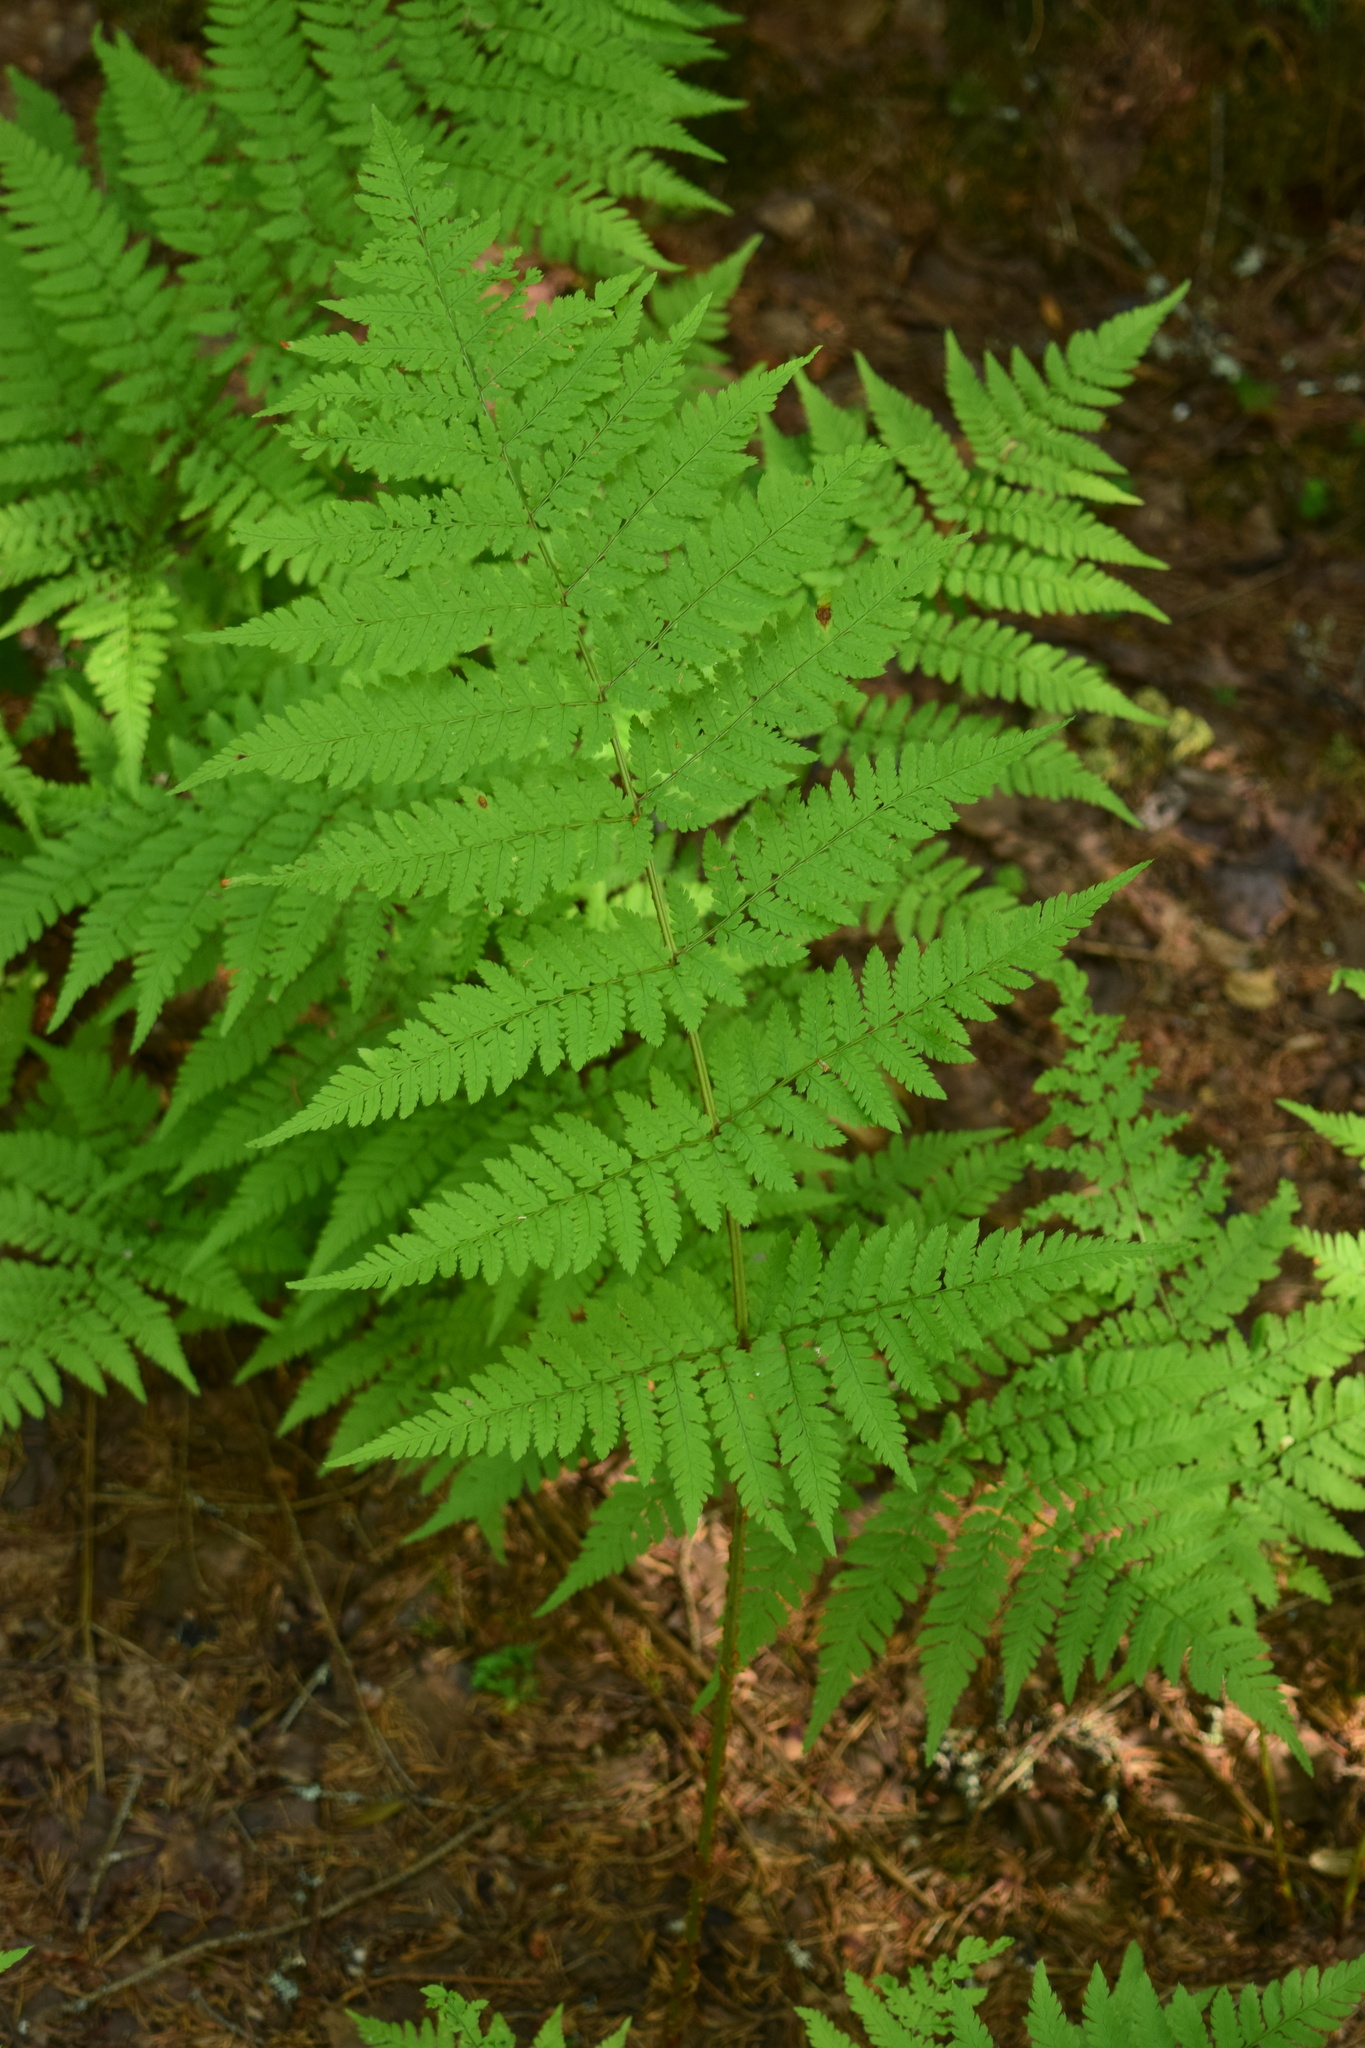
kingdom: Plantae
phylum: Tracheophyta
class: Polypodiopsida
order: Polypodiales
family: Dryopteridaceae
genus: Dryopteris
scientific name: Dryopteris carthusiana
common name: Narrow buckler-fern
